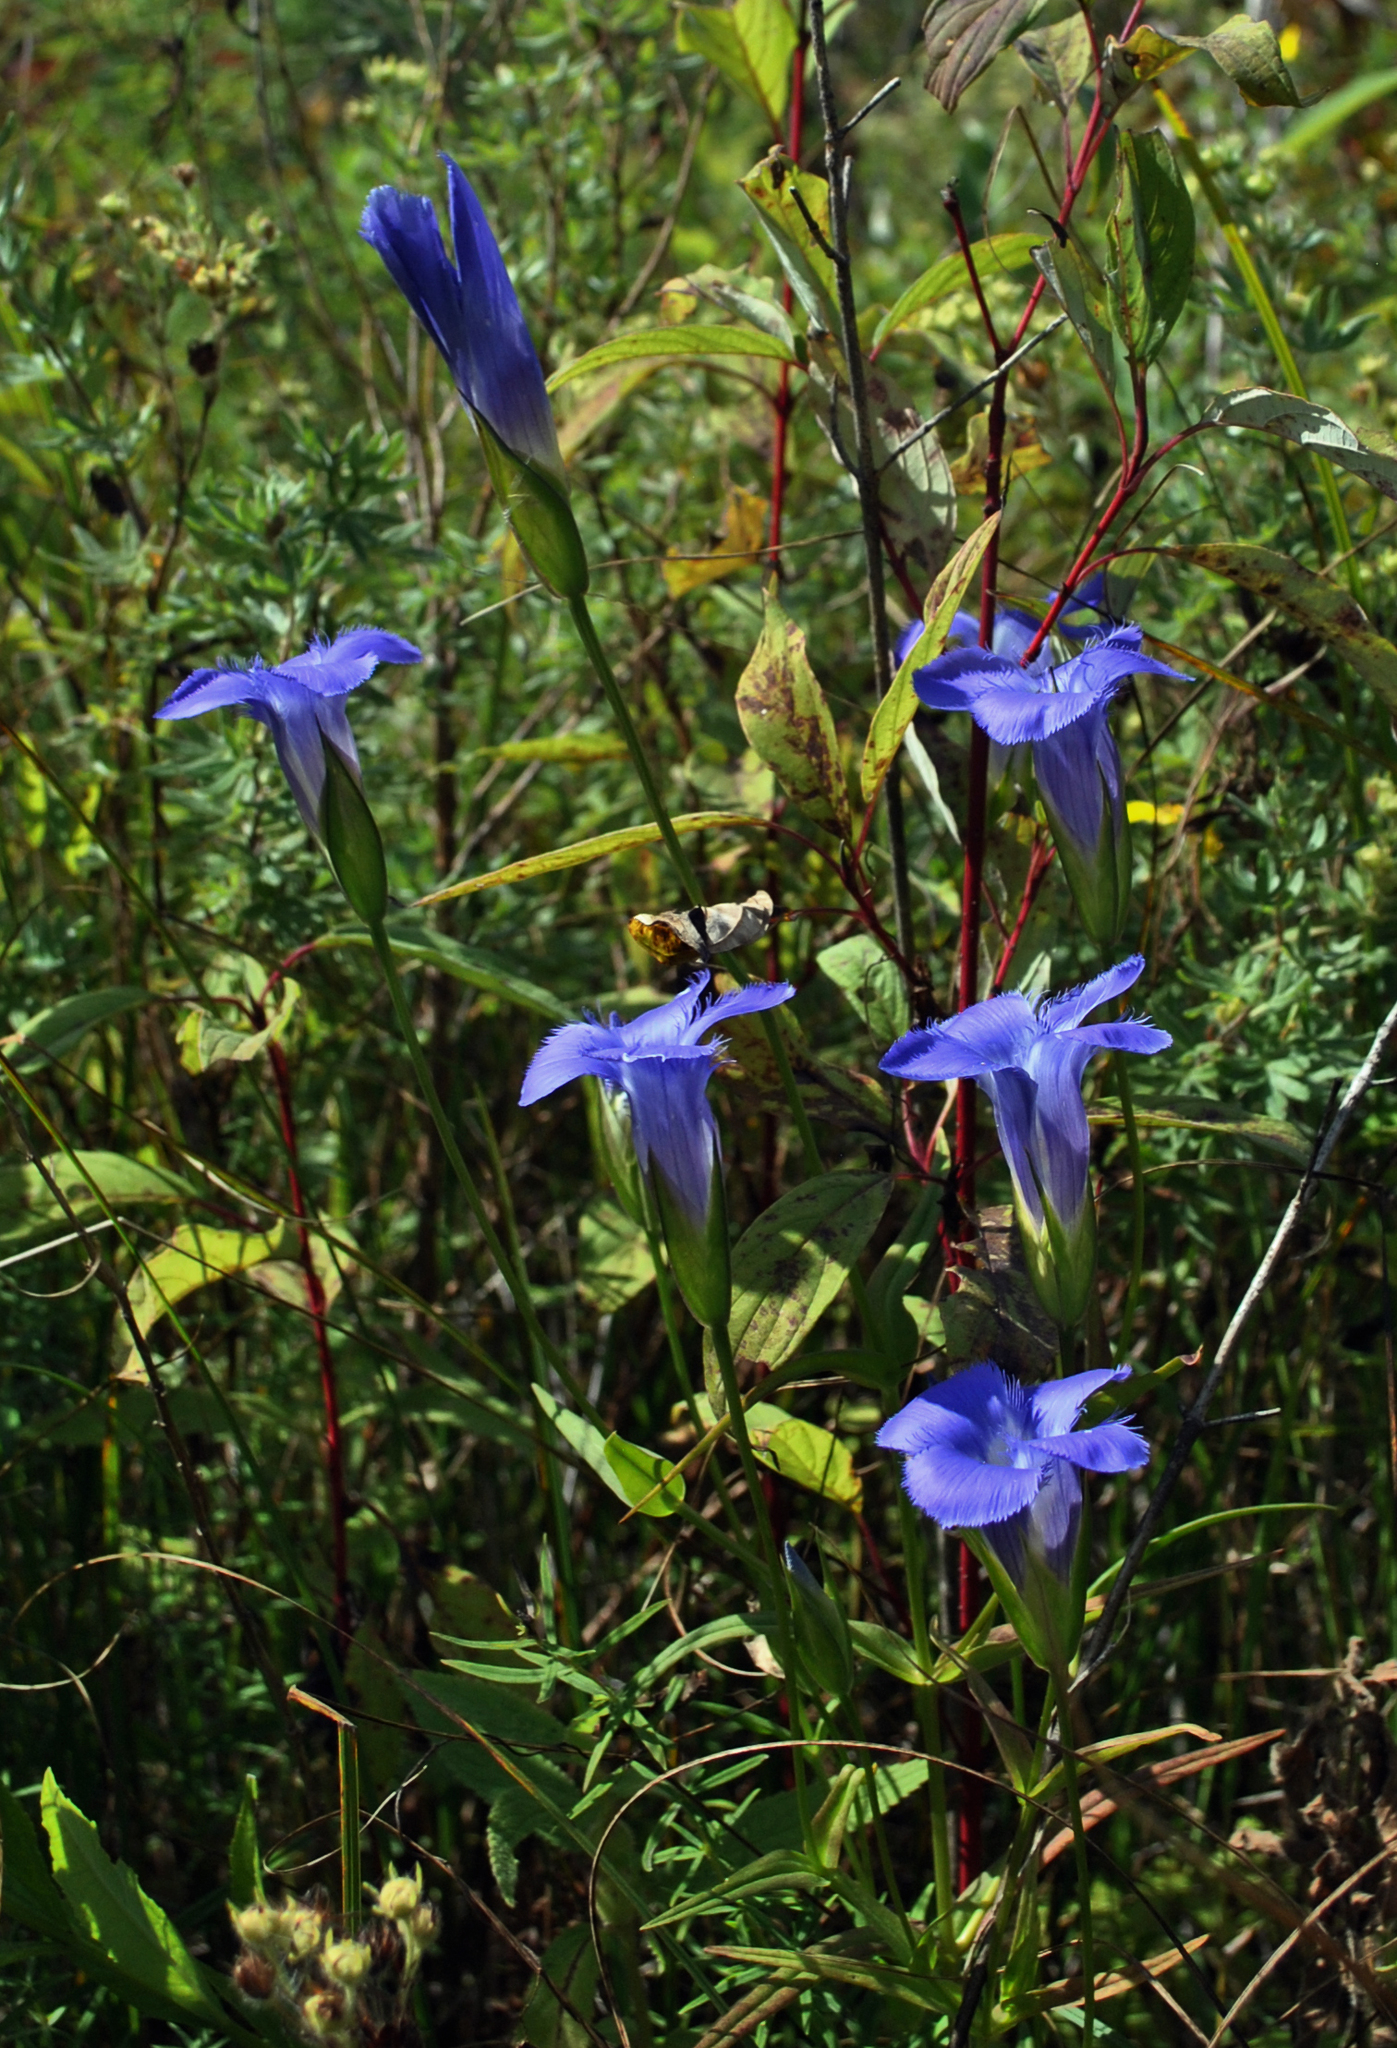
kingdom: Plantae
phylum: Tracheophyta
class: Magnoliopsida
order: Gentianales
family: Gentianaceae
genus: Gentianopsis
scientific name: Gentianopsis virgata
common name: Lesser fringed-gentian
